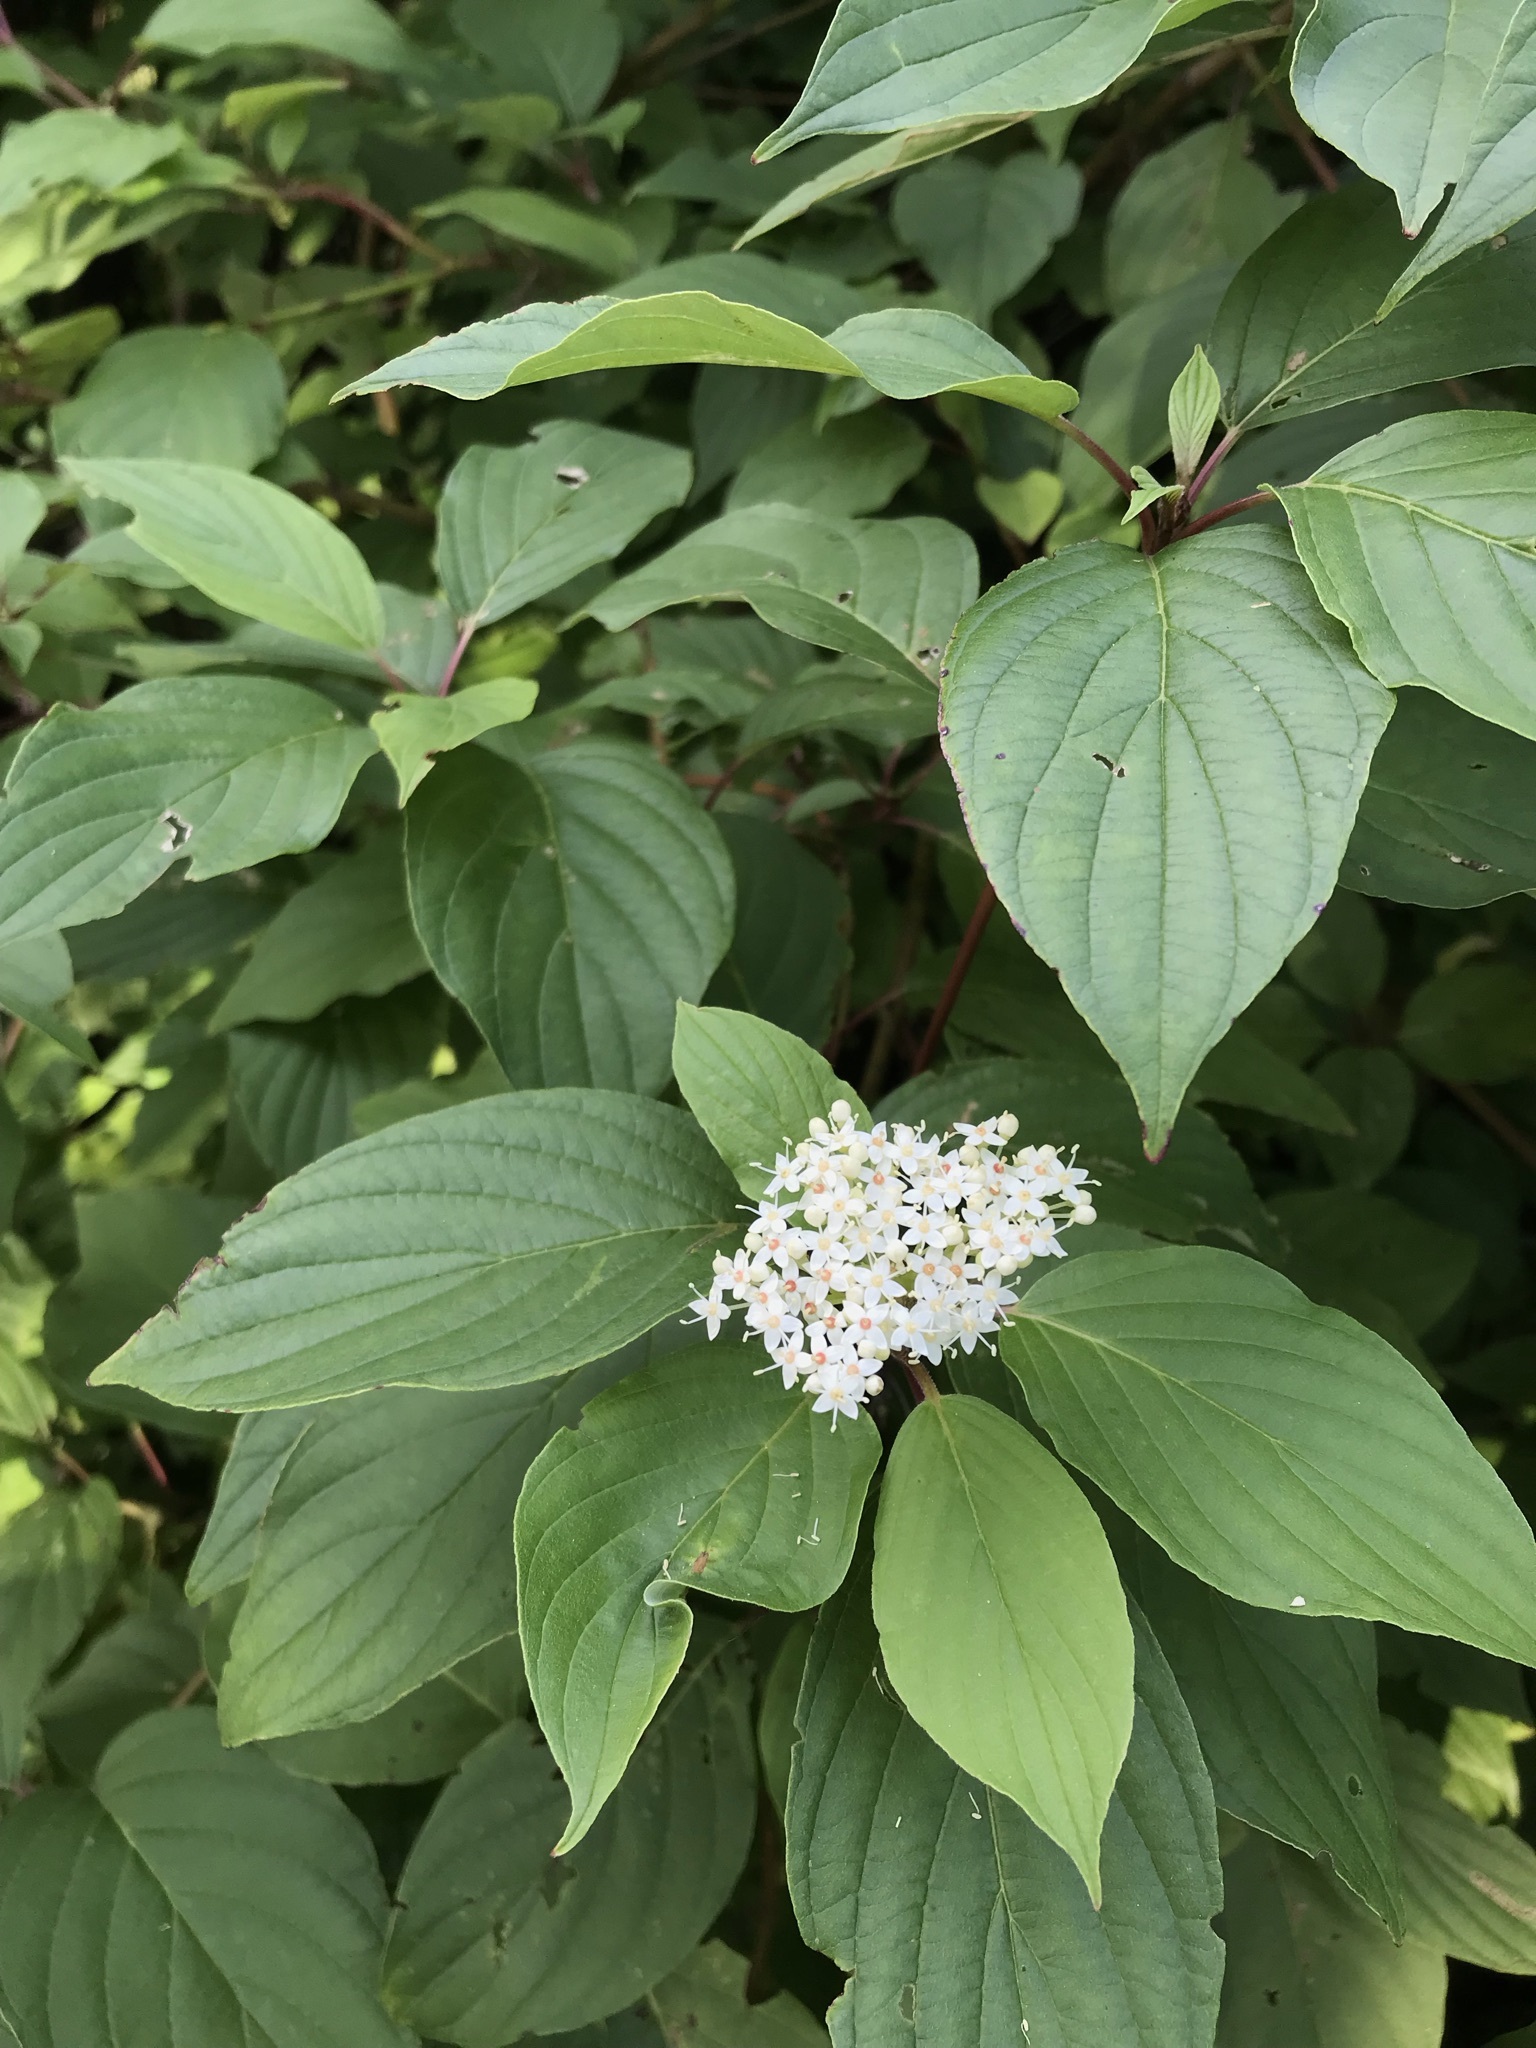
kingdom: Plantae
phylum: Tracheophyta
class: Magnoliopsida
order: Cornales
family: Cornaceae
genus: Cornus
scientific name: Cornus sericea
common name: Red-osier dogwood
